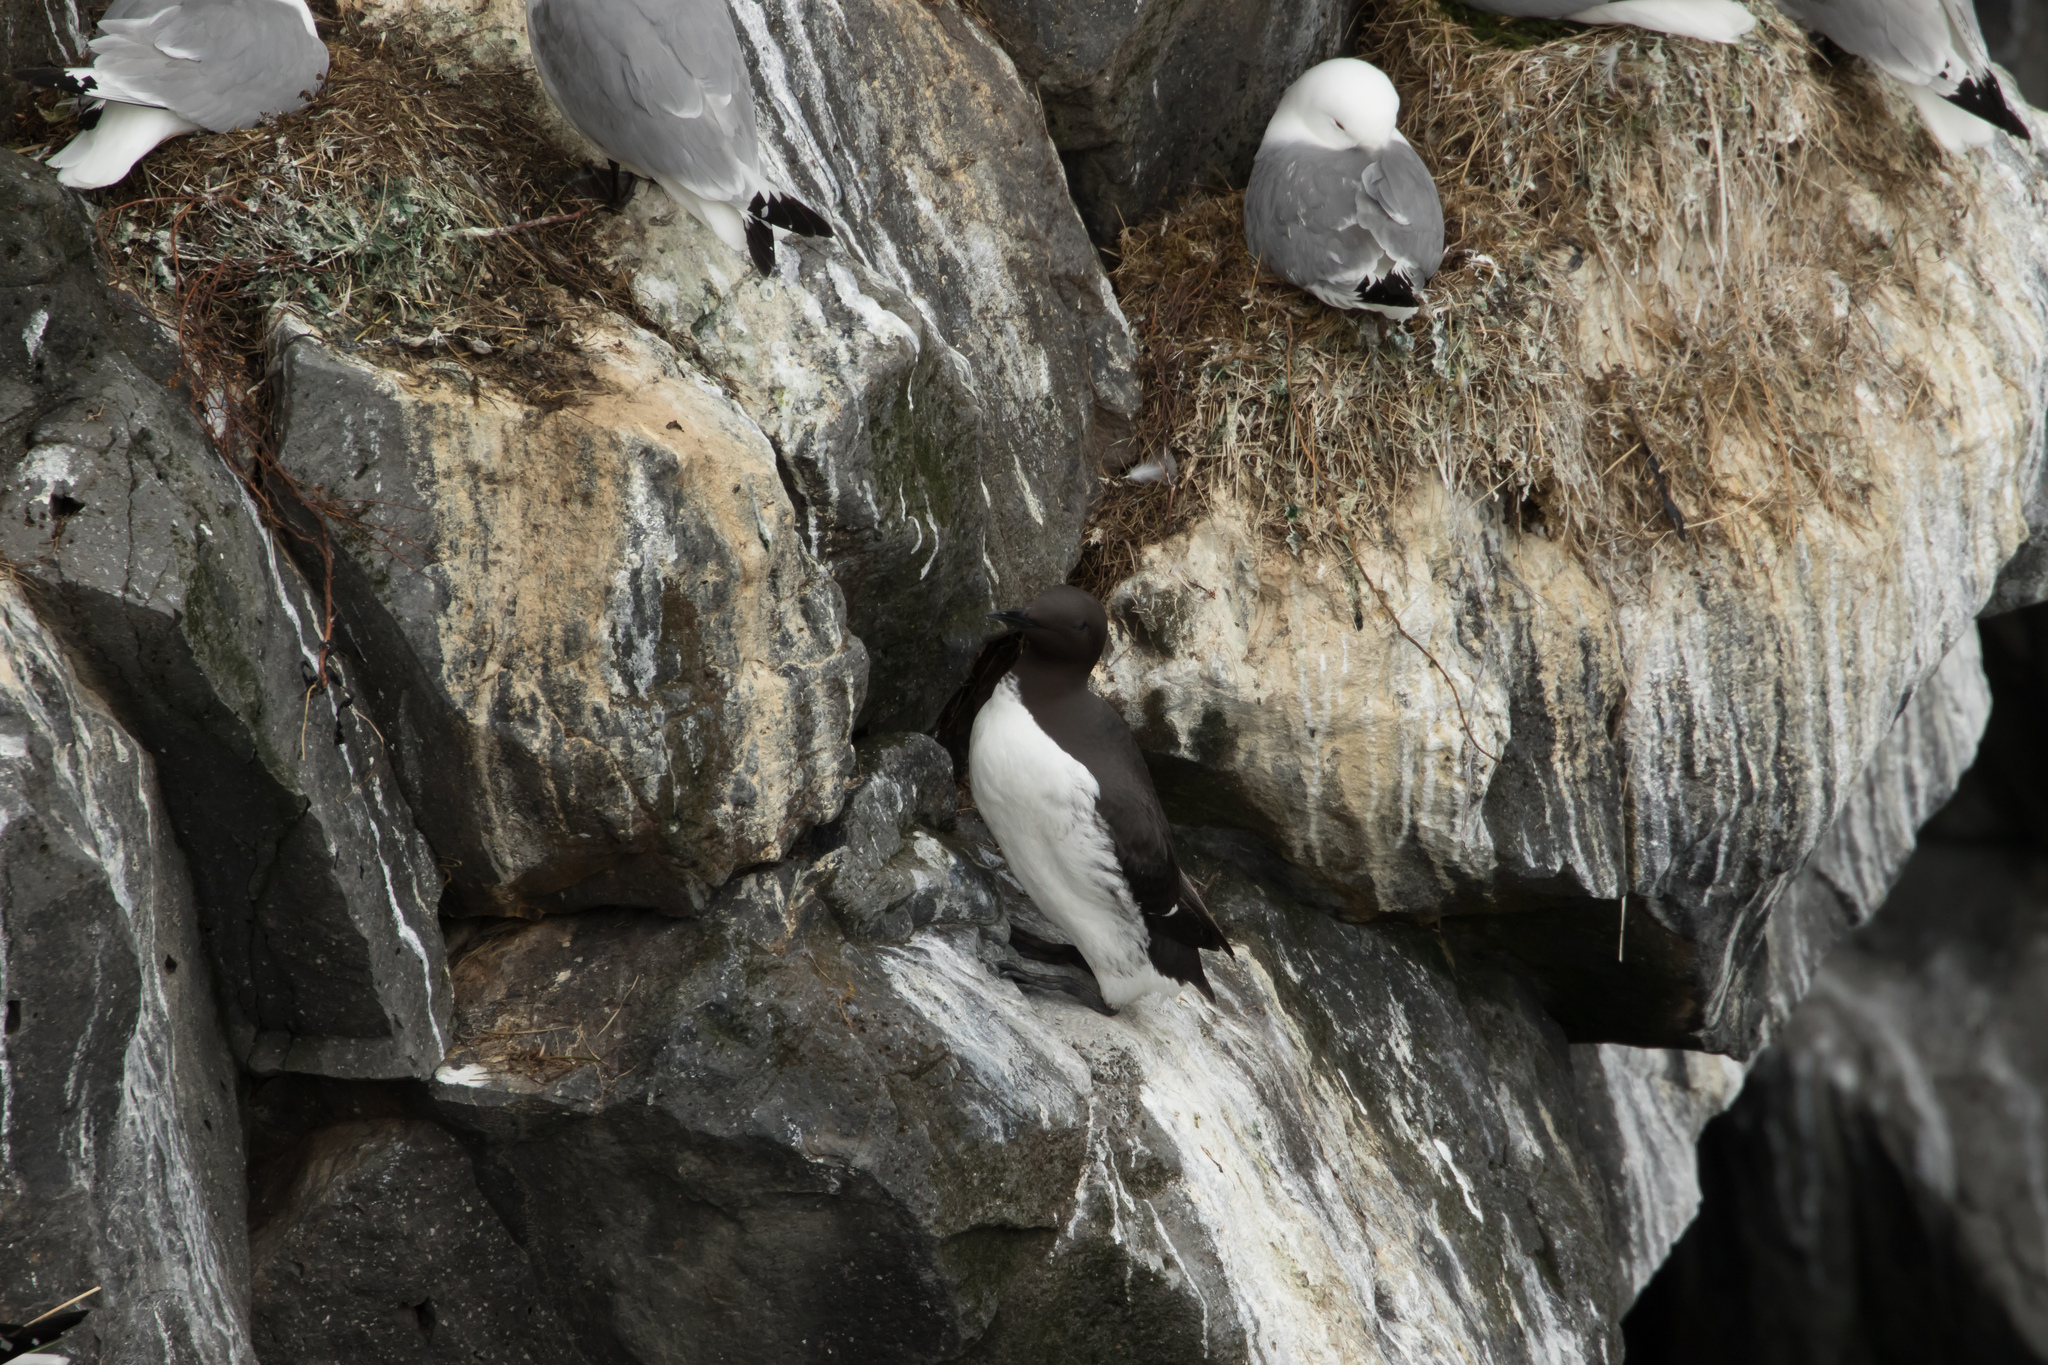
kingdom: Animalia
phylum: Chordata
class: Aves
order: Charadriiformes
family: Alcidae
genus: Uria
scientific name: Uria aalge
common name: Common murre
